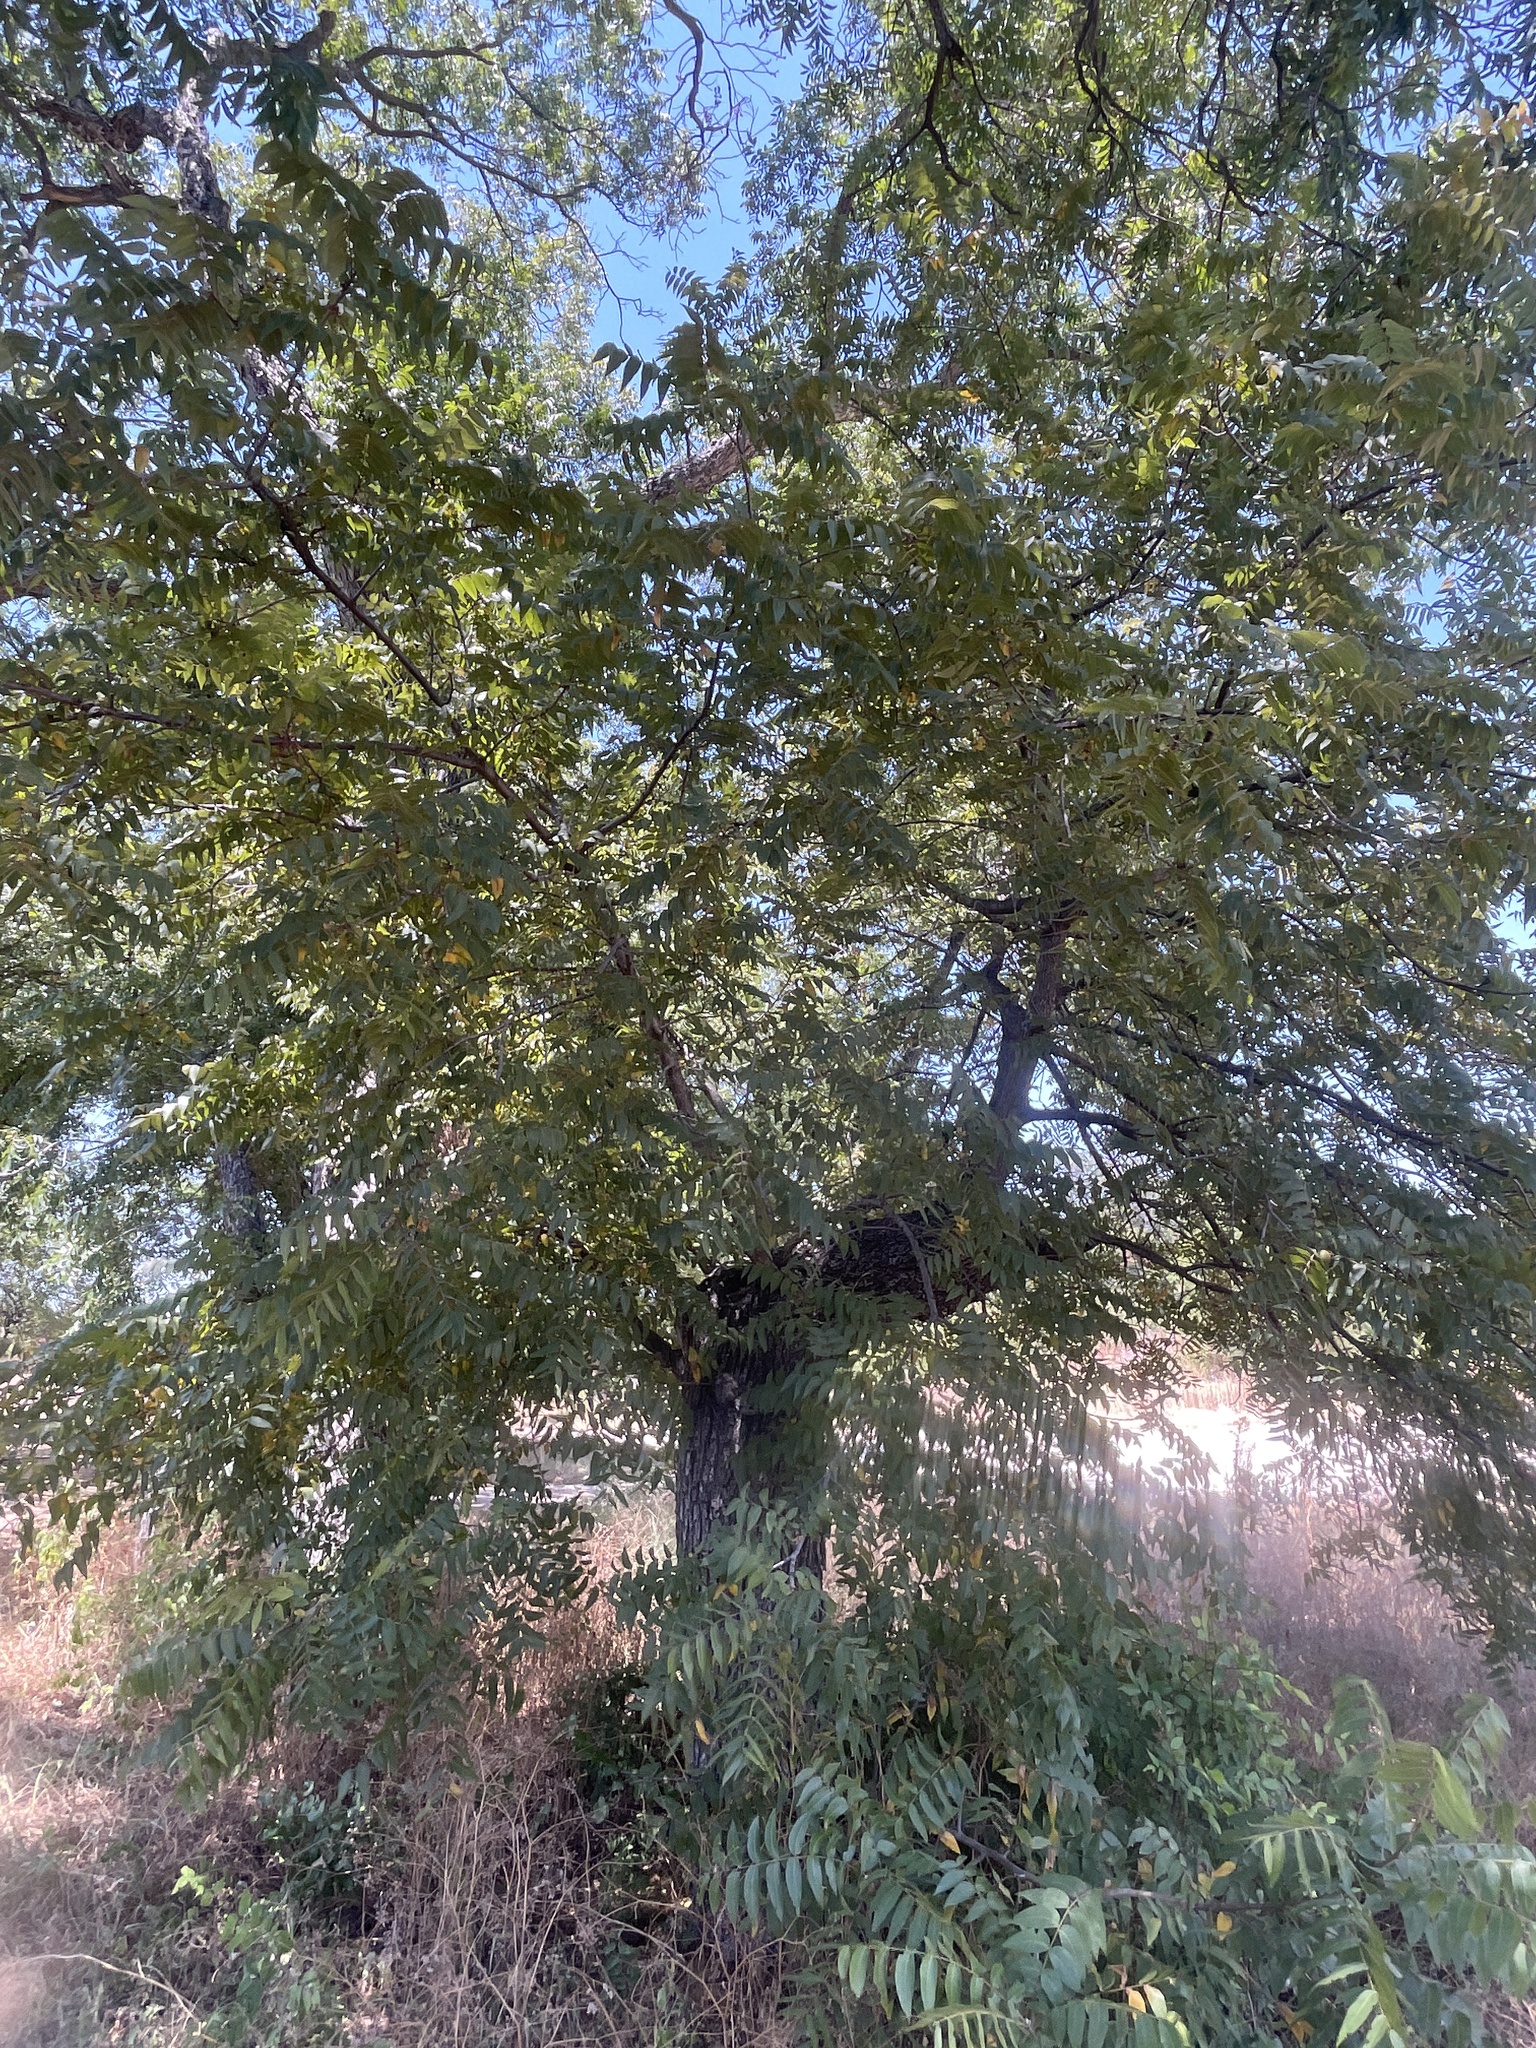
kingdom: Plantae
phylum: Tracheophyta
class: Magnoliopsida
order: Fagales
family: Juglandaceae
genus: Juglans
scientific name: Juglans nigra
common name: Black walnut
